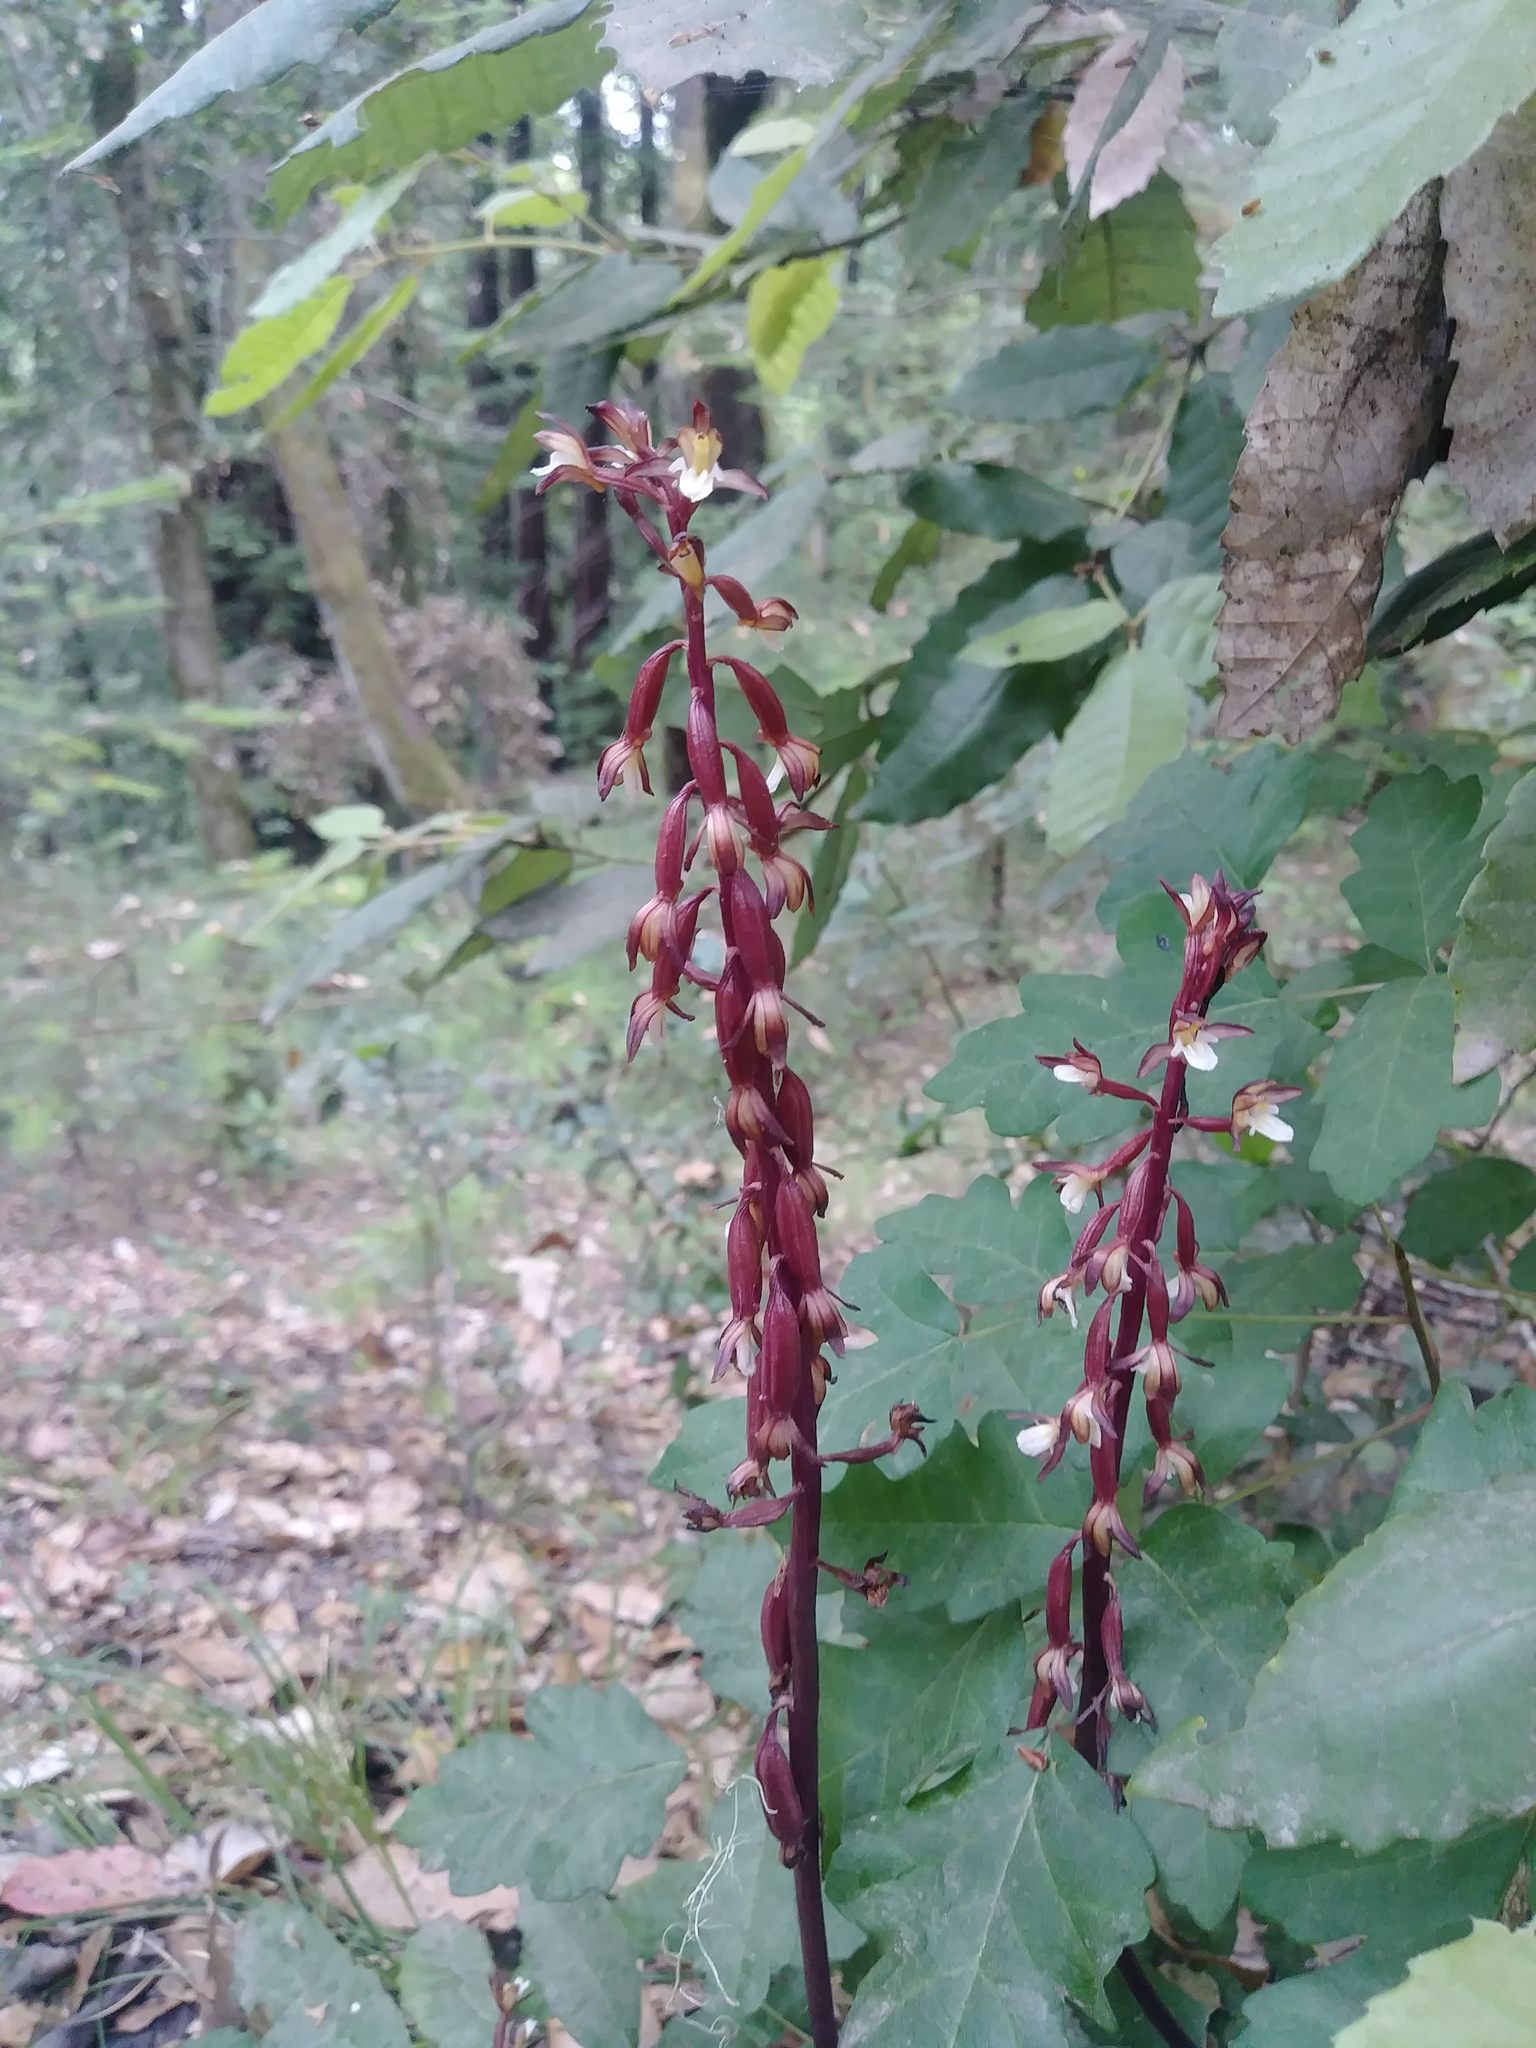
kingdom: Plantae
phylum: Tracheophyta
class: Liliopsida
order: Asparagales
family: Orchidaceae
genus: Corallorhiza
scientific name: Corallorhiza maculata
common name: Spotted coralroot
